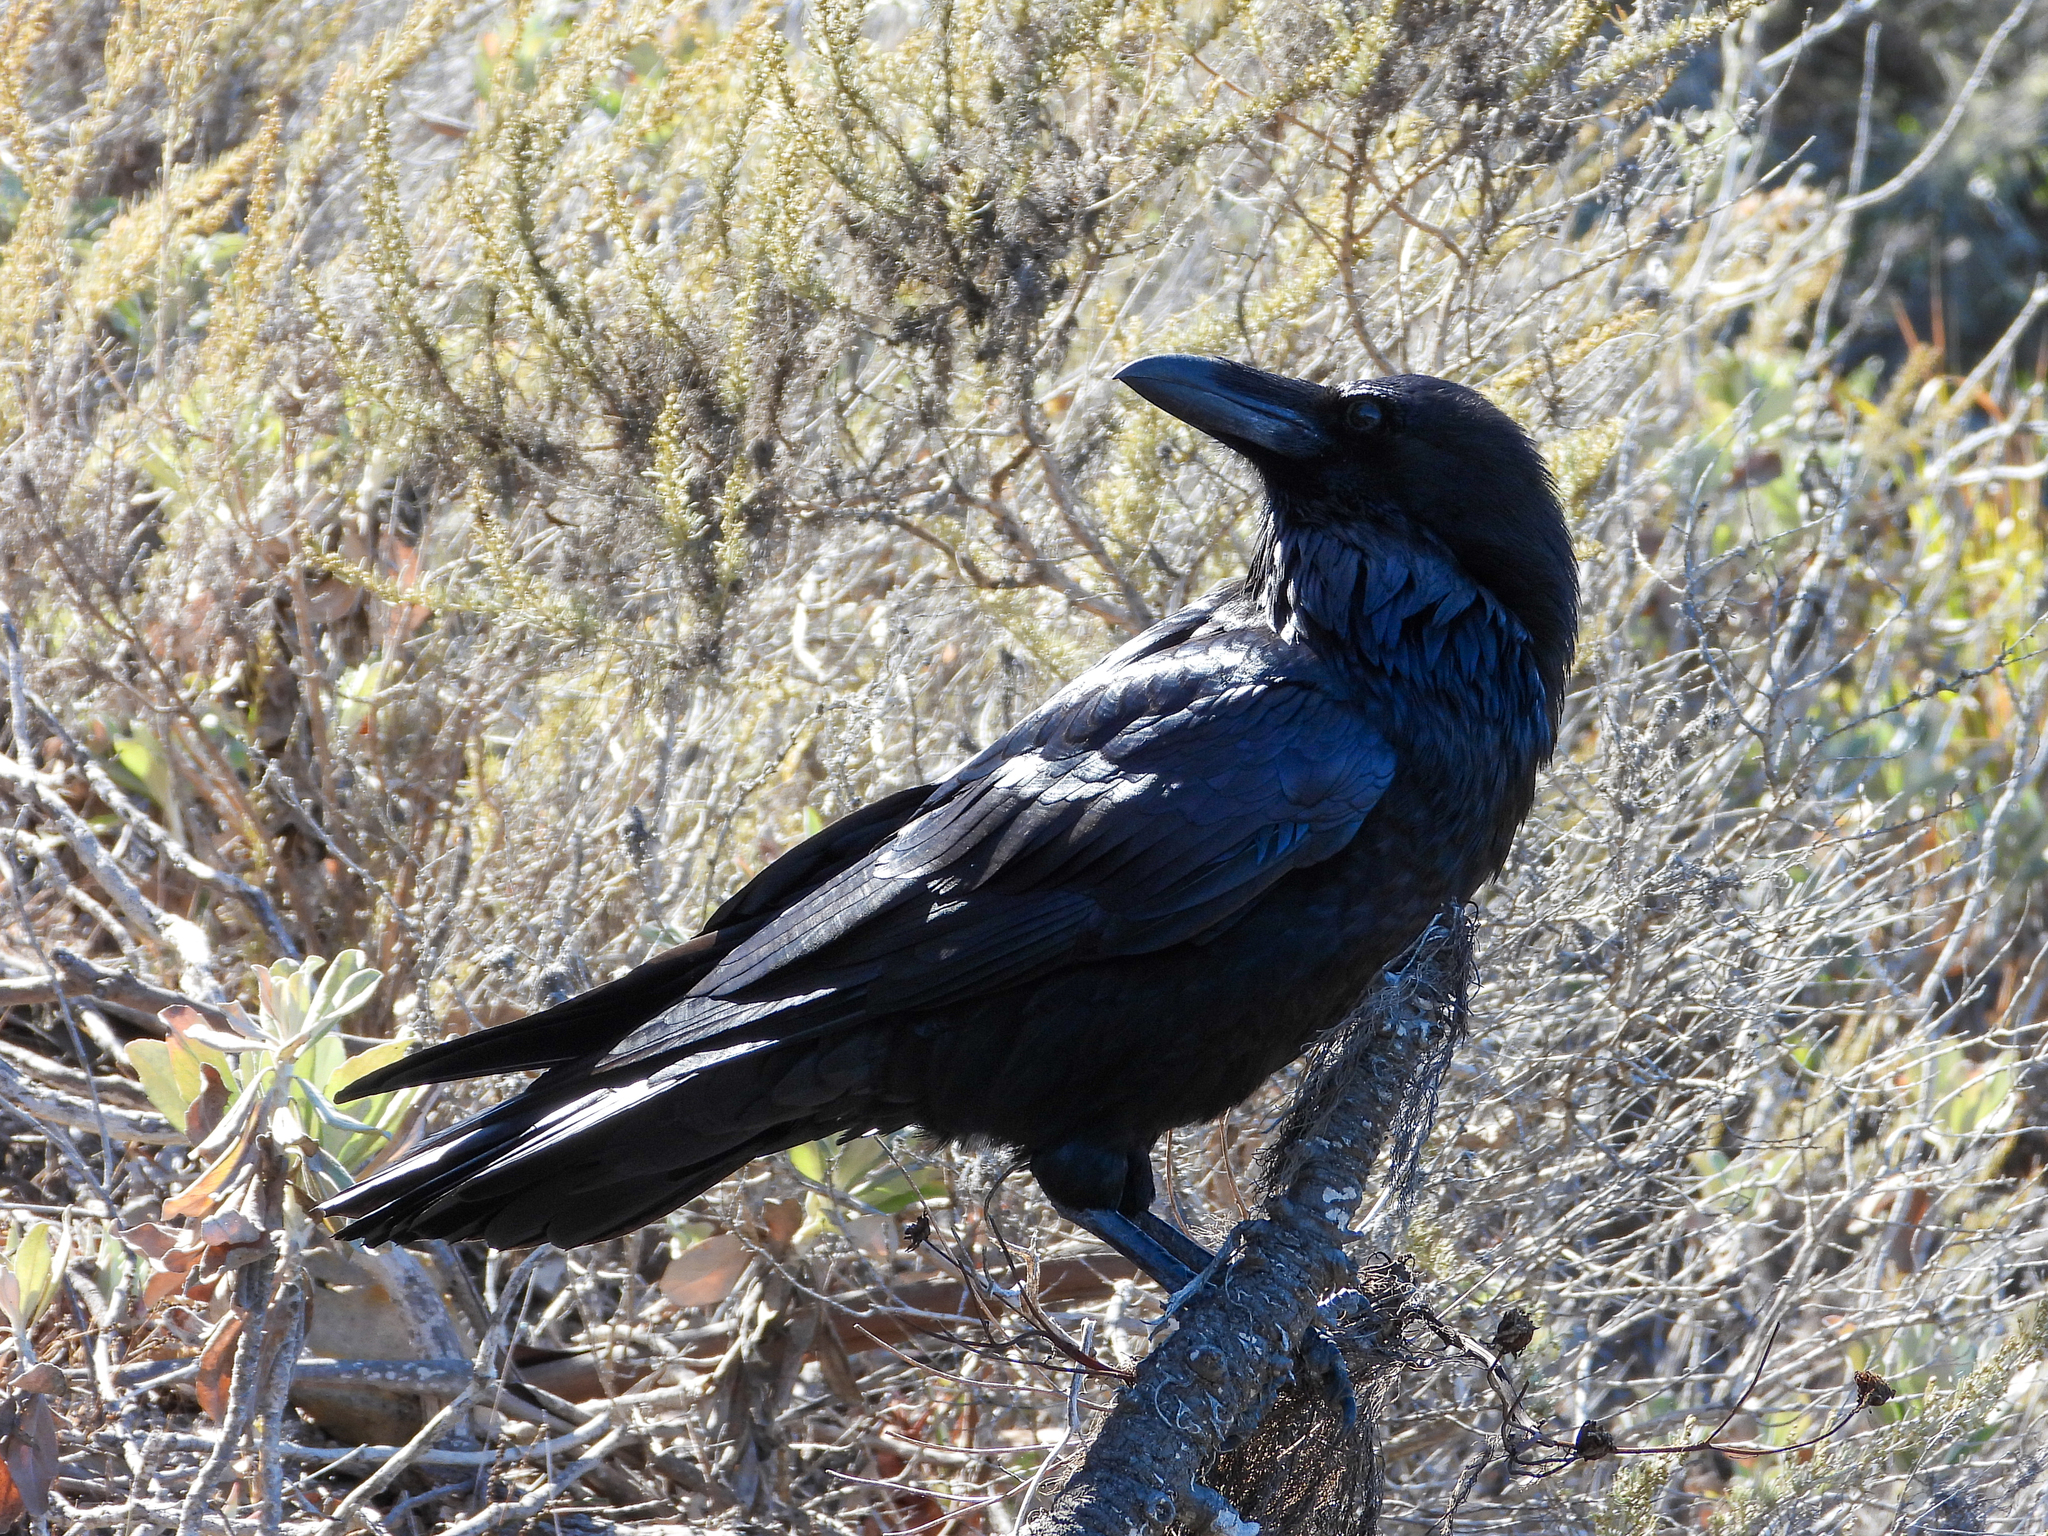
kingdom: Animalia
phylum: Chordata
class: Aves
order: Passeriformes
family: Corvidae
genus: Corvus
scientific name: Corvus corax
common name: Common raven
